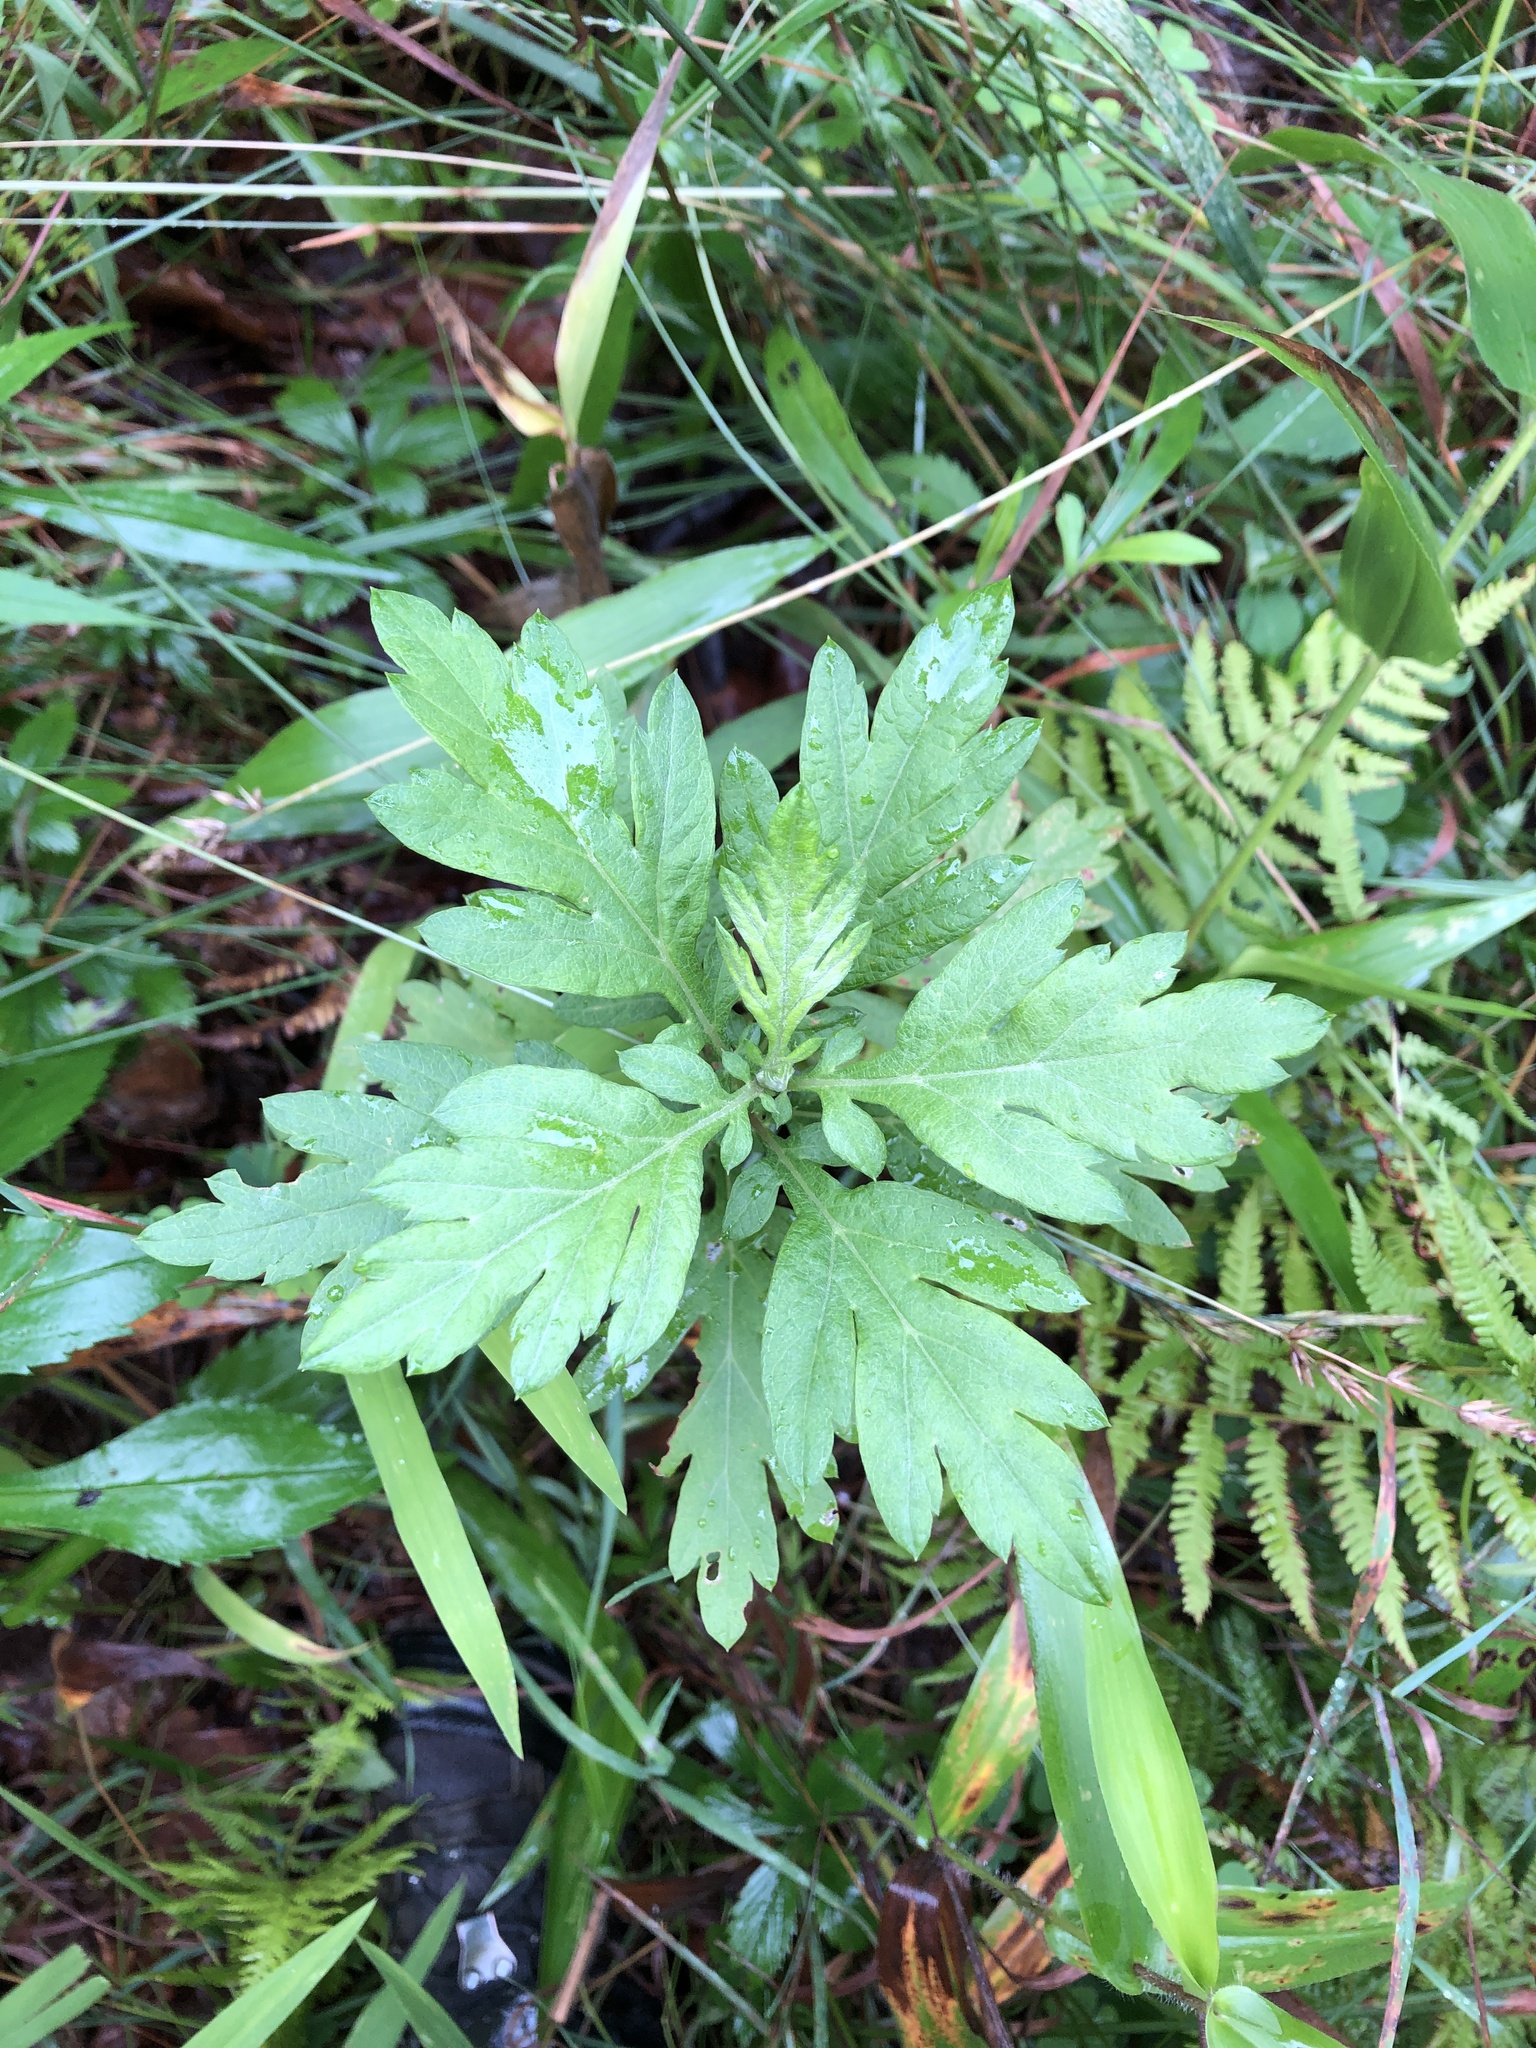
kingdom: Plantae
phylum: Tracheophyta
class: Magnoliopsida
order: Asterales
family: Asteraceae
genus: Artemisia
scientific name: Artemisia vulgaris
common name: Mugwort
